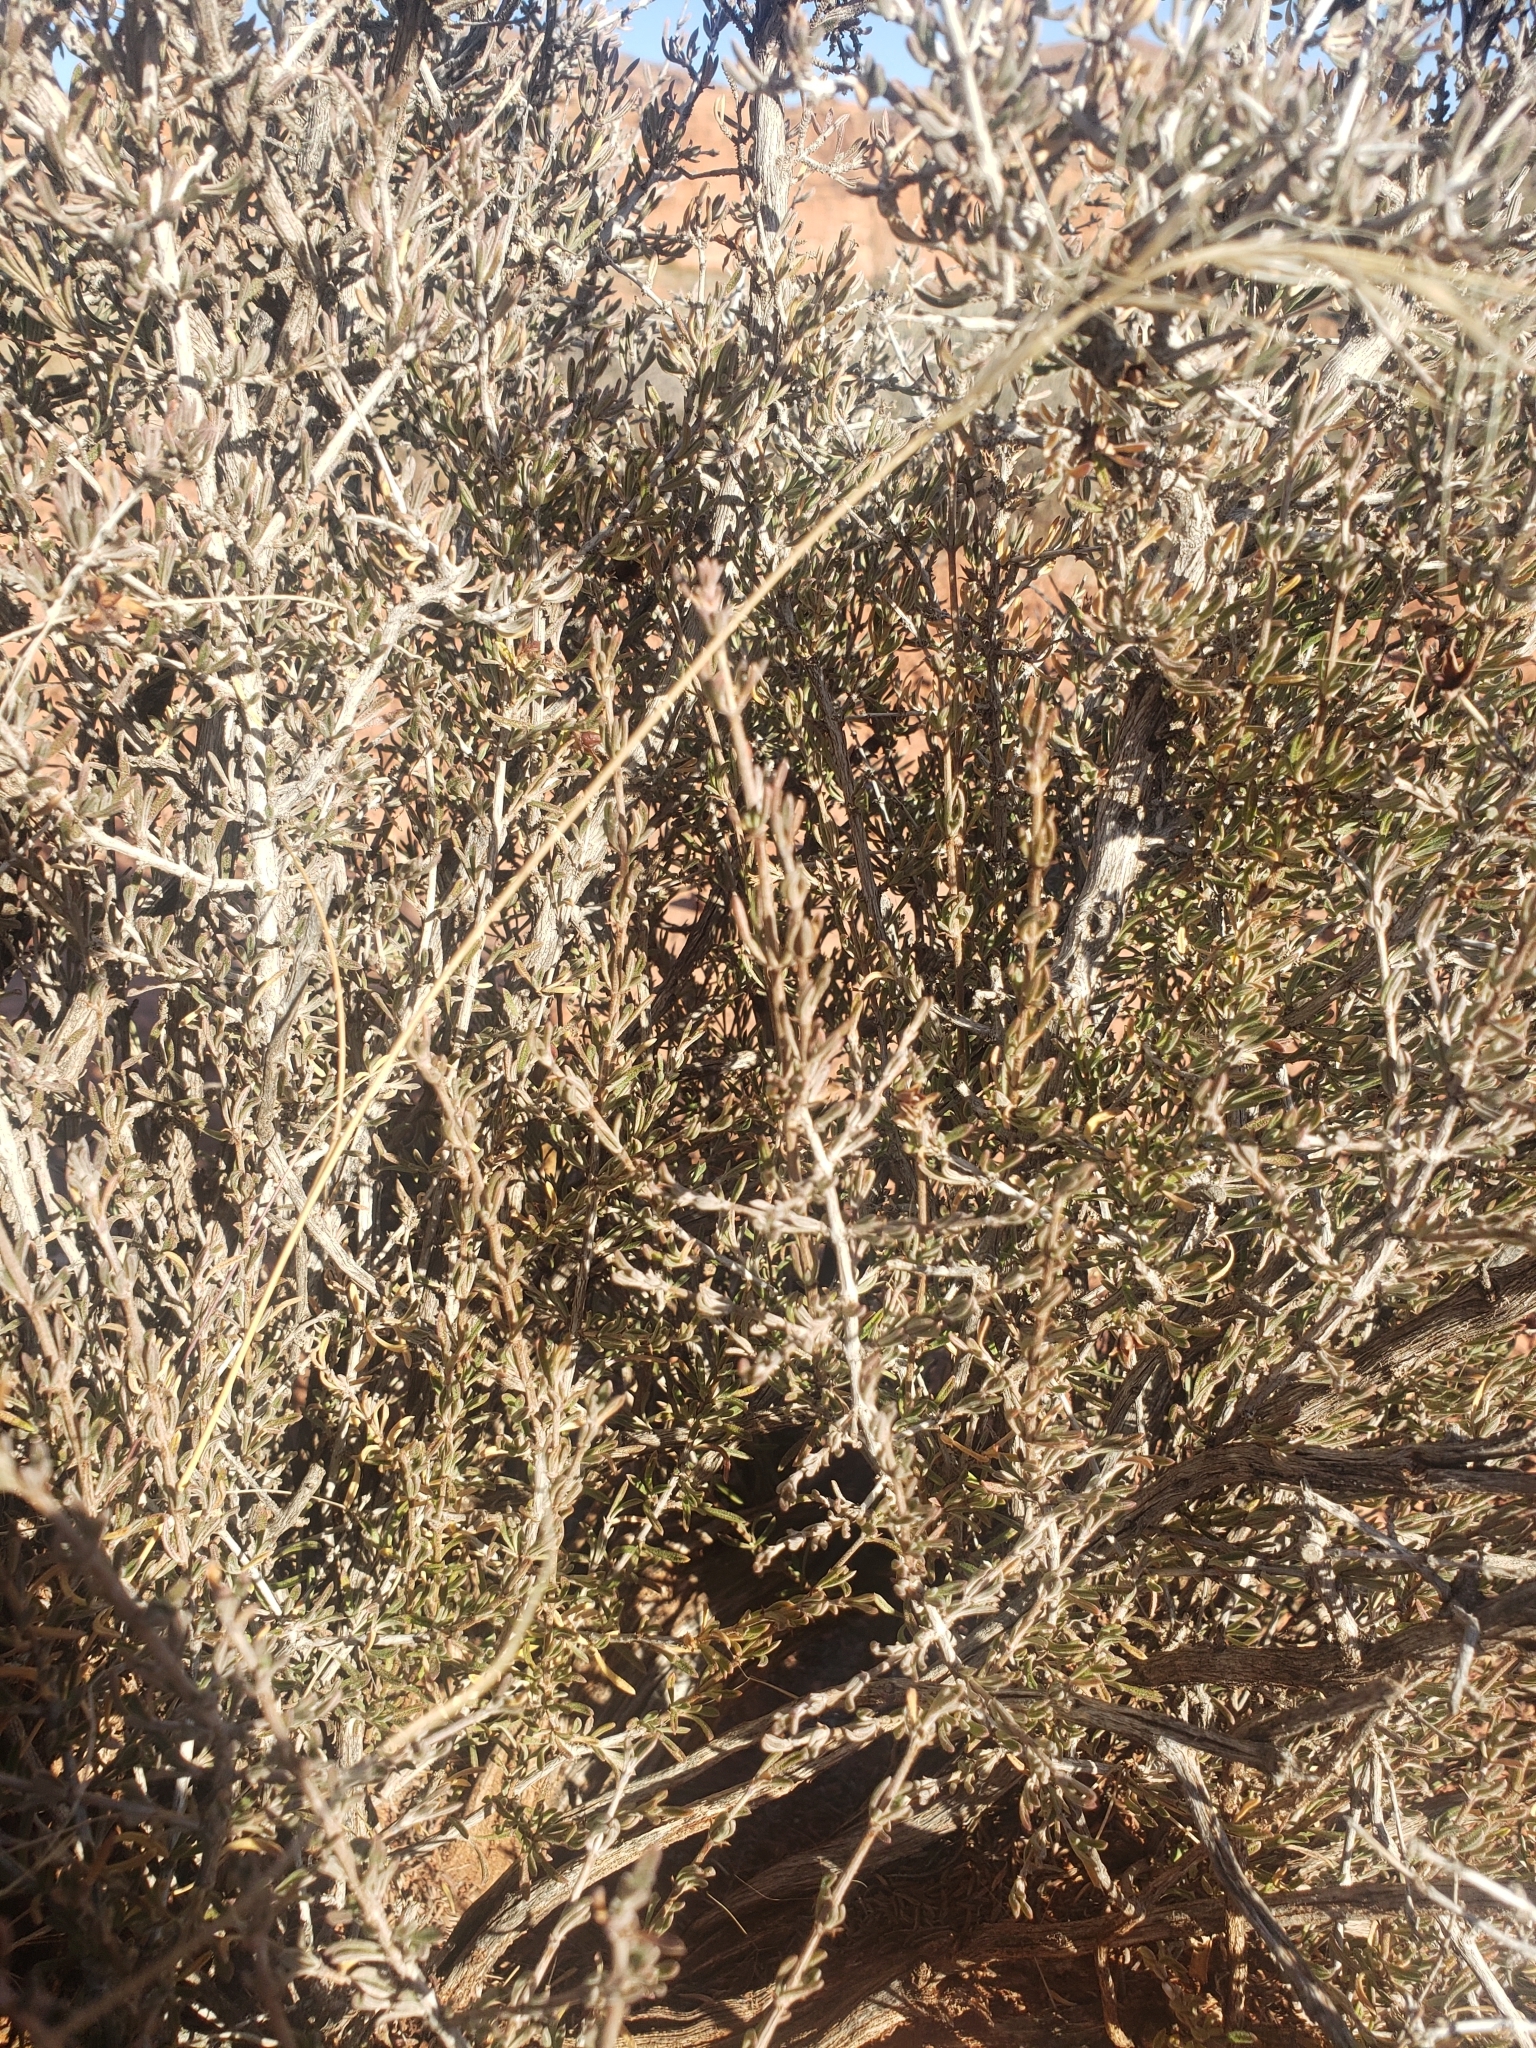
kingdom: Plantae
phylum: Tracheophyta
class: Magnoliopsida
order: Rosales
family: Rosaceae
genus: Coleogyne
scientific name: Coleogyne ramosissima
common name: Blackbrush
